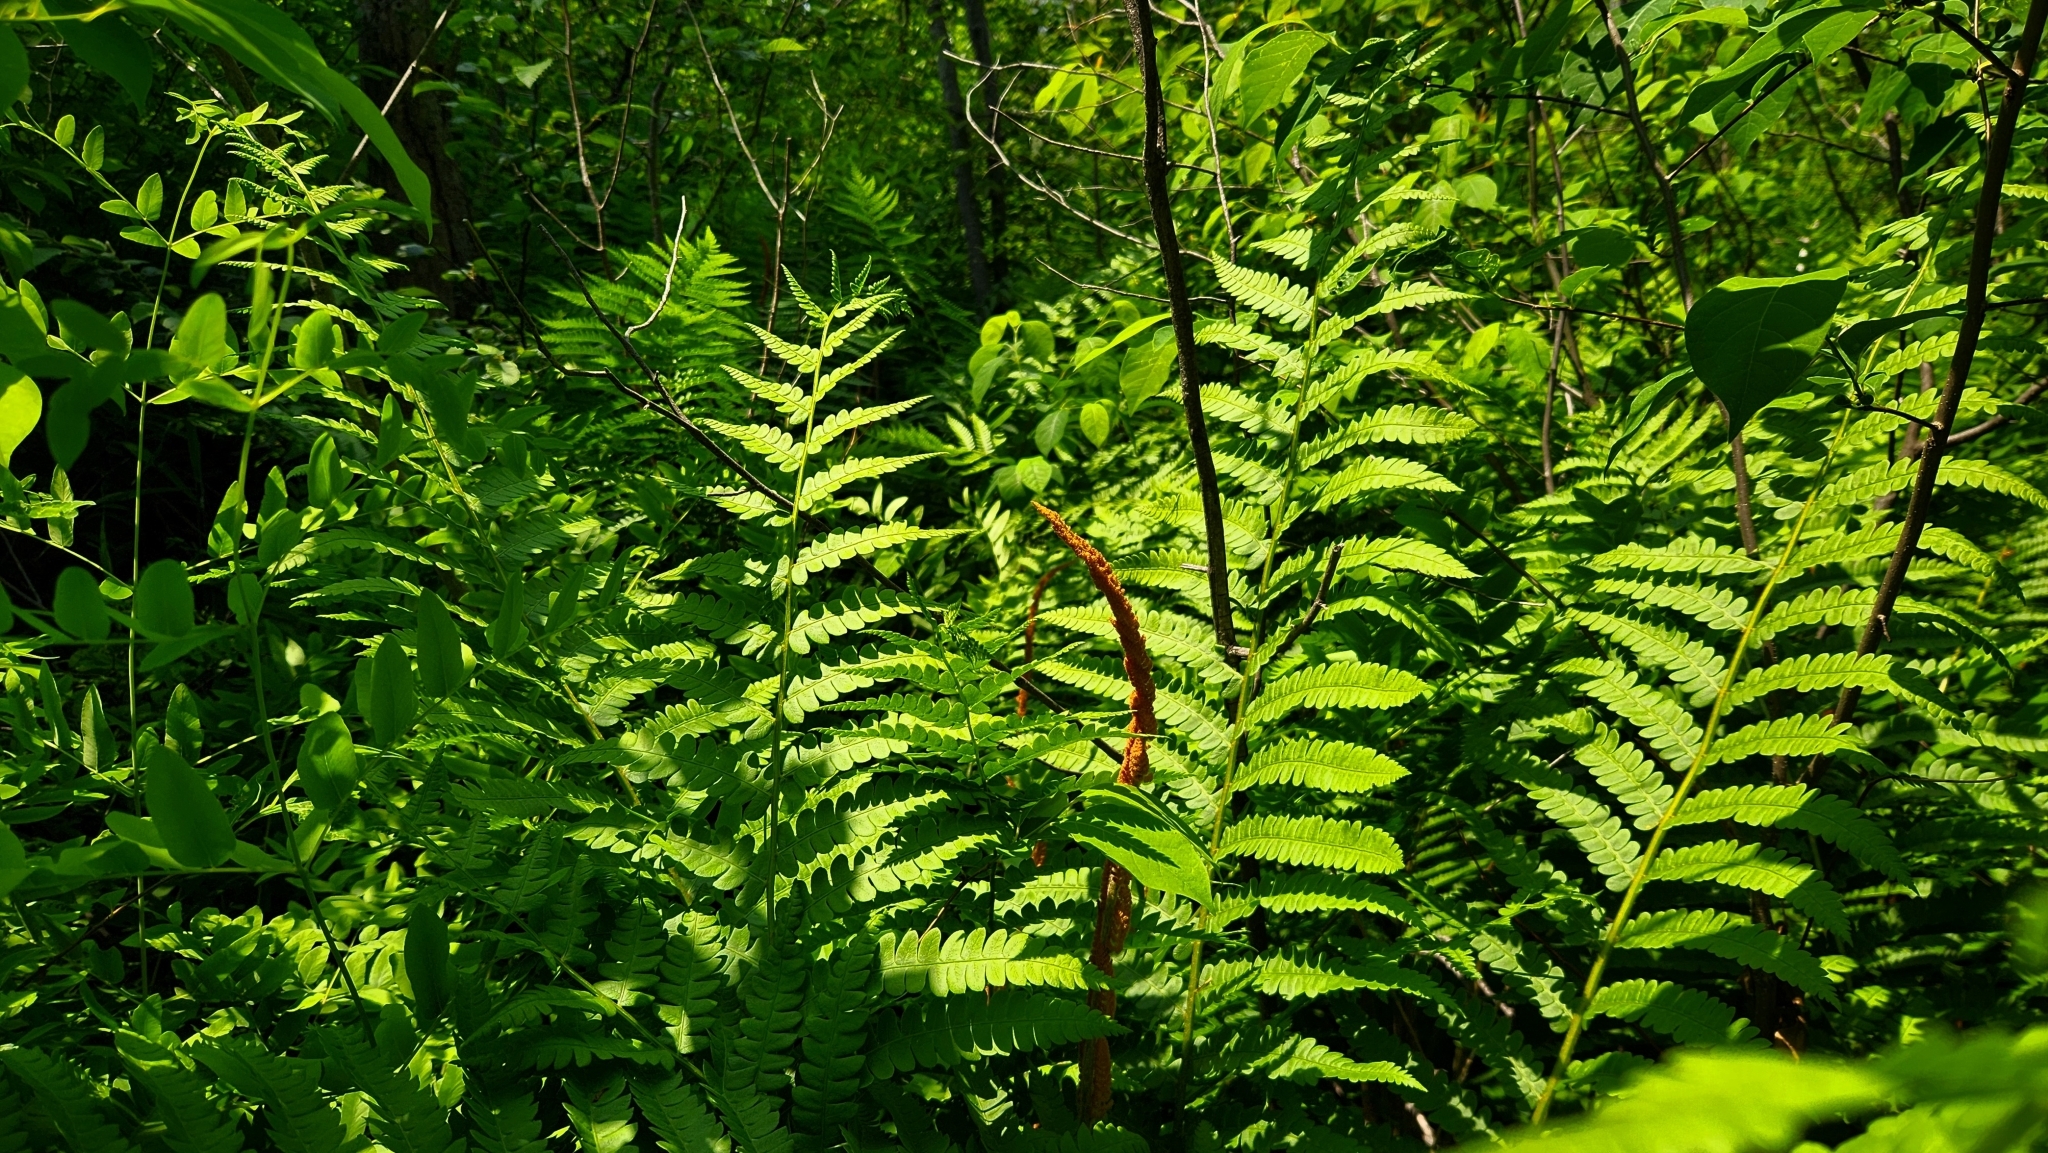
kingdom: Plantae
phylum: Tracheophyta
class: Polypodiopsida
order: Osmundales
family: Osmundaceae
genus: Osmundastrum
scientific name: Osmundastrum cinnamomeum
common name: Cinnamon fern
